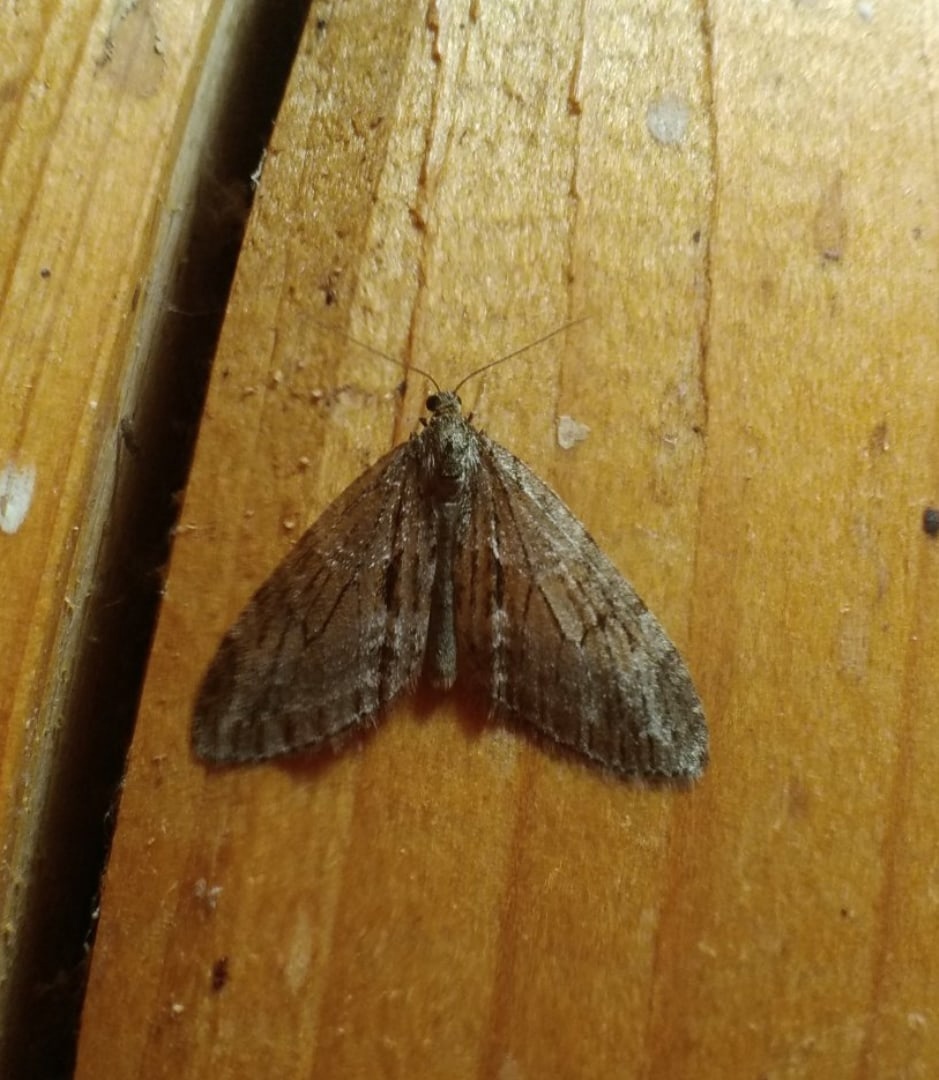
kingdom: Animalia
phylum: Arthropoda
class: Insecta
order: Lepidoptera
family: Geometridae
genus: Trichopteryx
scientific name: Trichopteryx polycommata
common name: Barred tooth-striped
